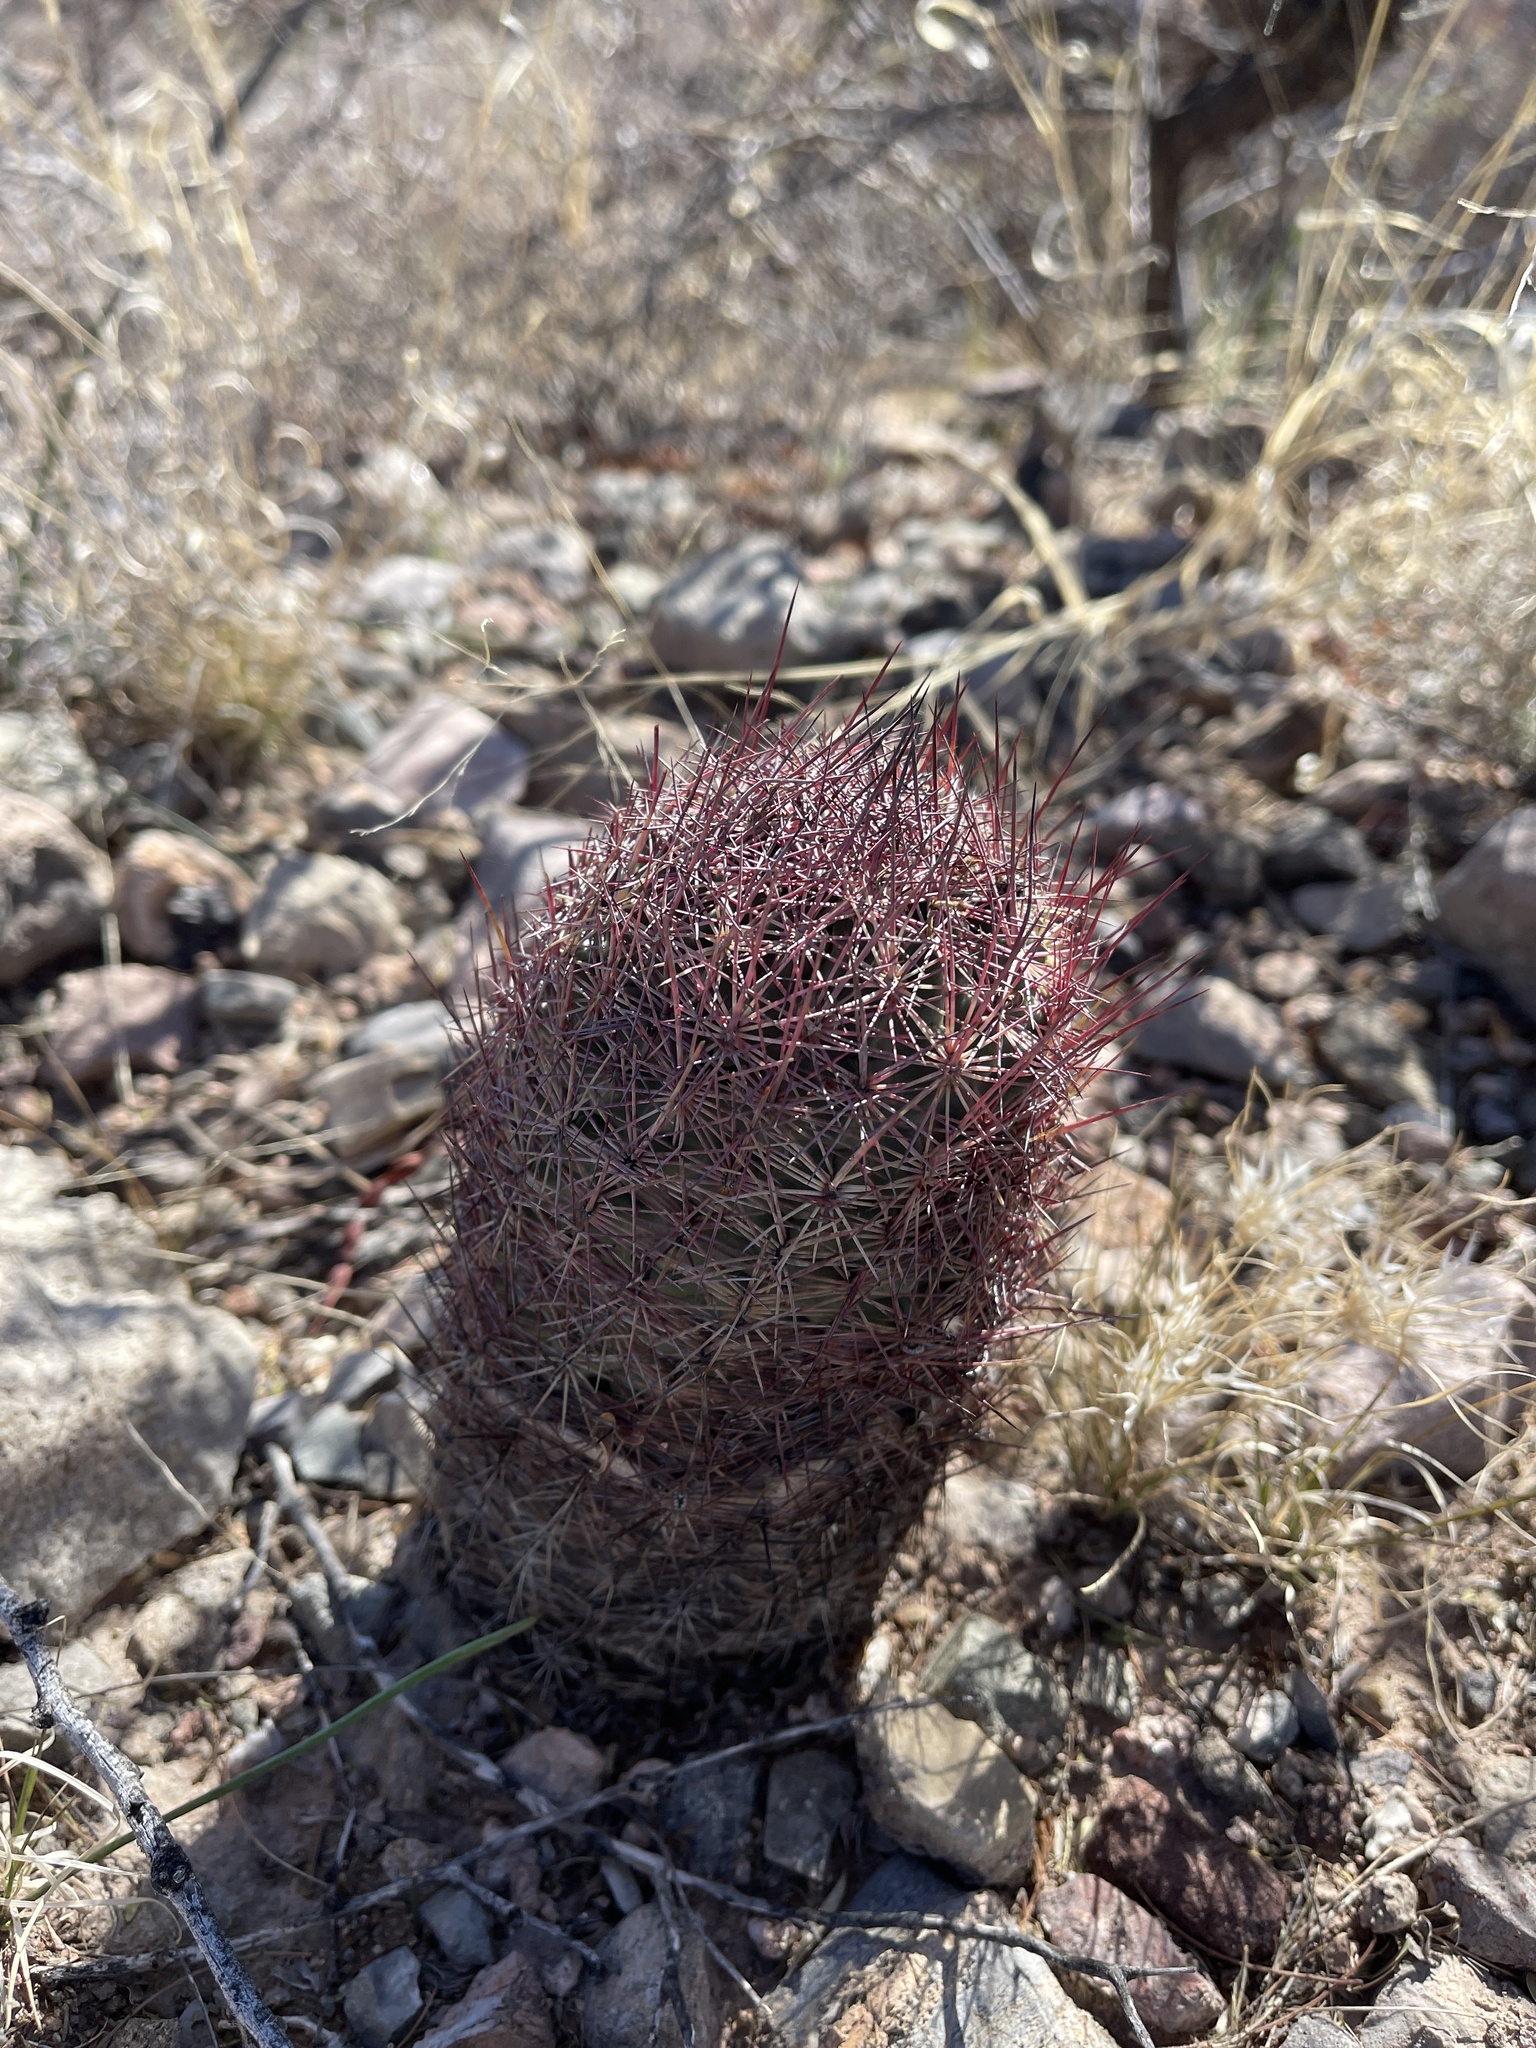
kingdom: Plantae
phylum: Tracheophyta
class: Magnoliopsida
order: Caryophyllales
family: Cactaceae
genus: Sclerocactus
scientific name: Sclerocactus johnsonii
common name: Eight-spine fishhook cactus
